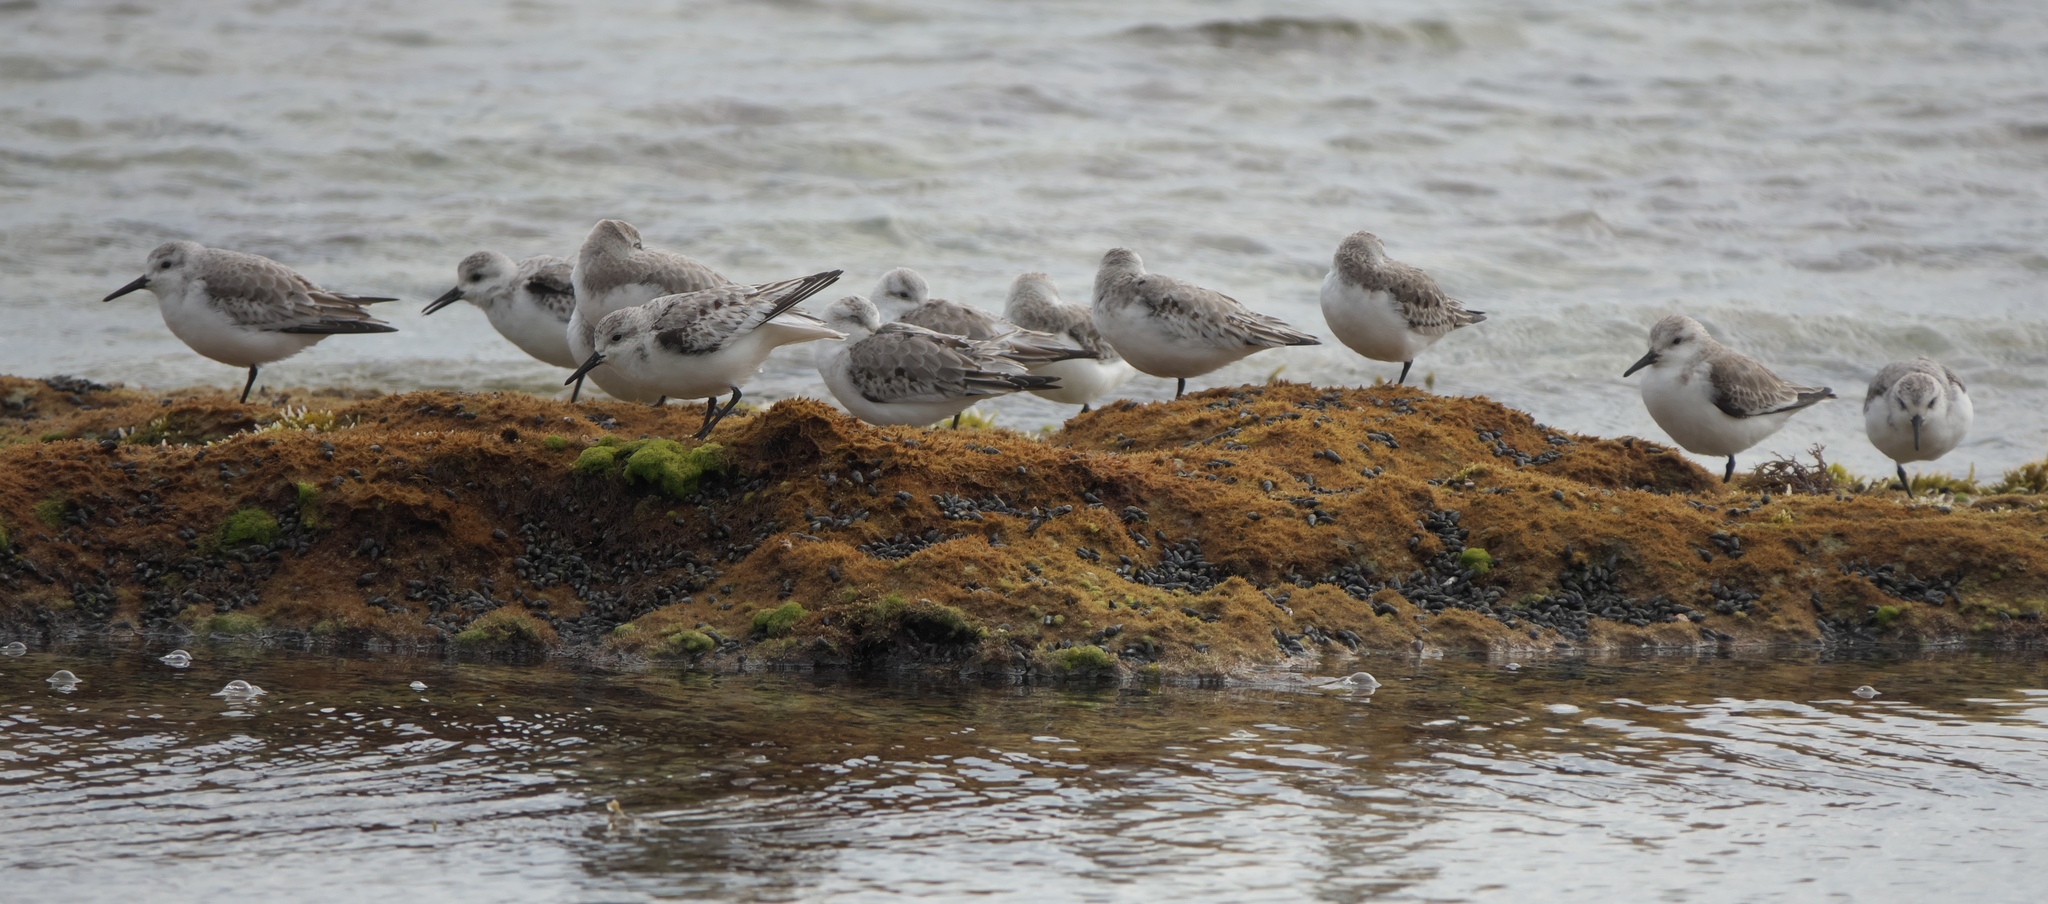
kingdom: Animalia
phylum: Chordata
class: Aves
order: Charadriiformes
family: Scolopacidae
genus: Calidris
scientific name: Calidris alba
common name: Sanderling
